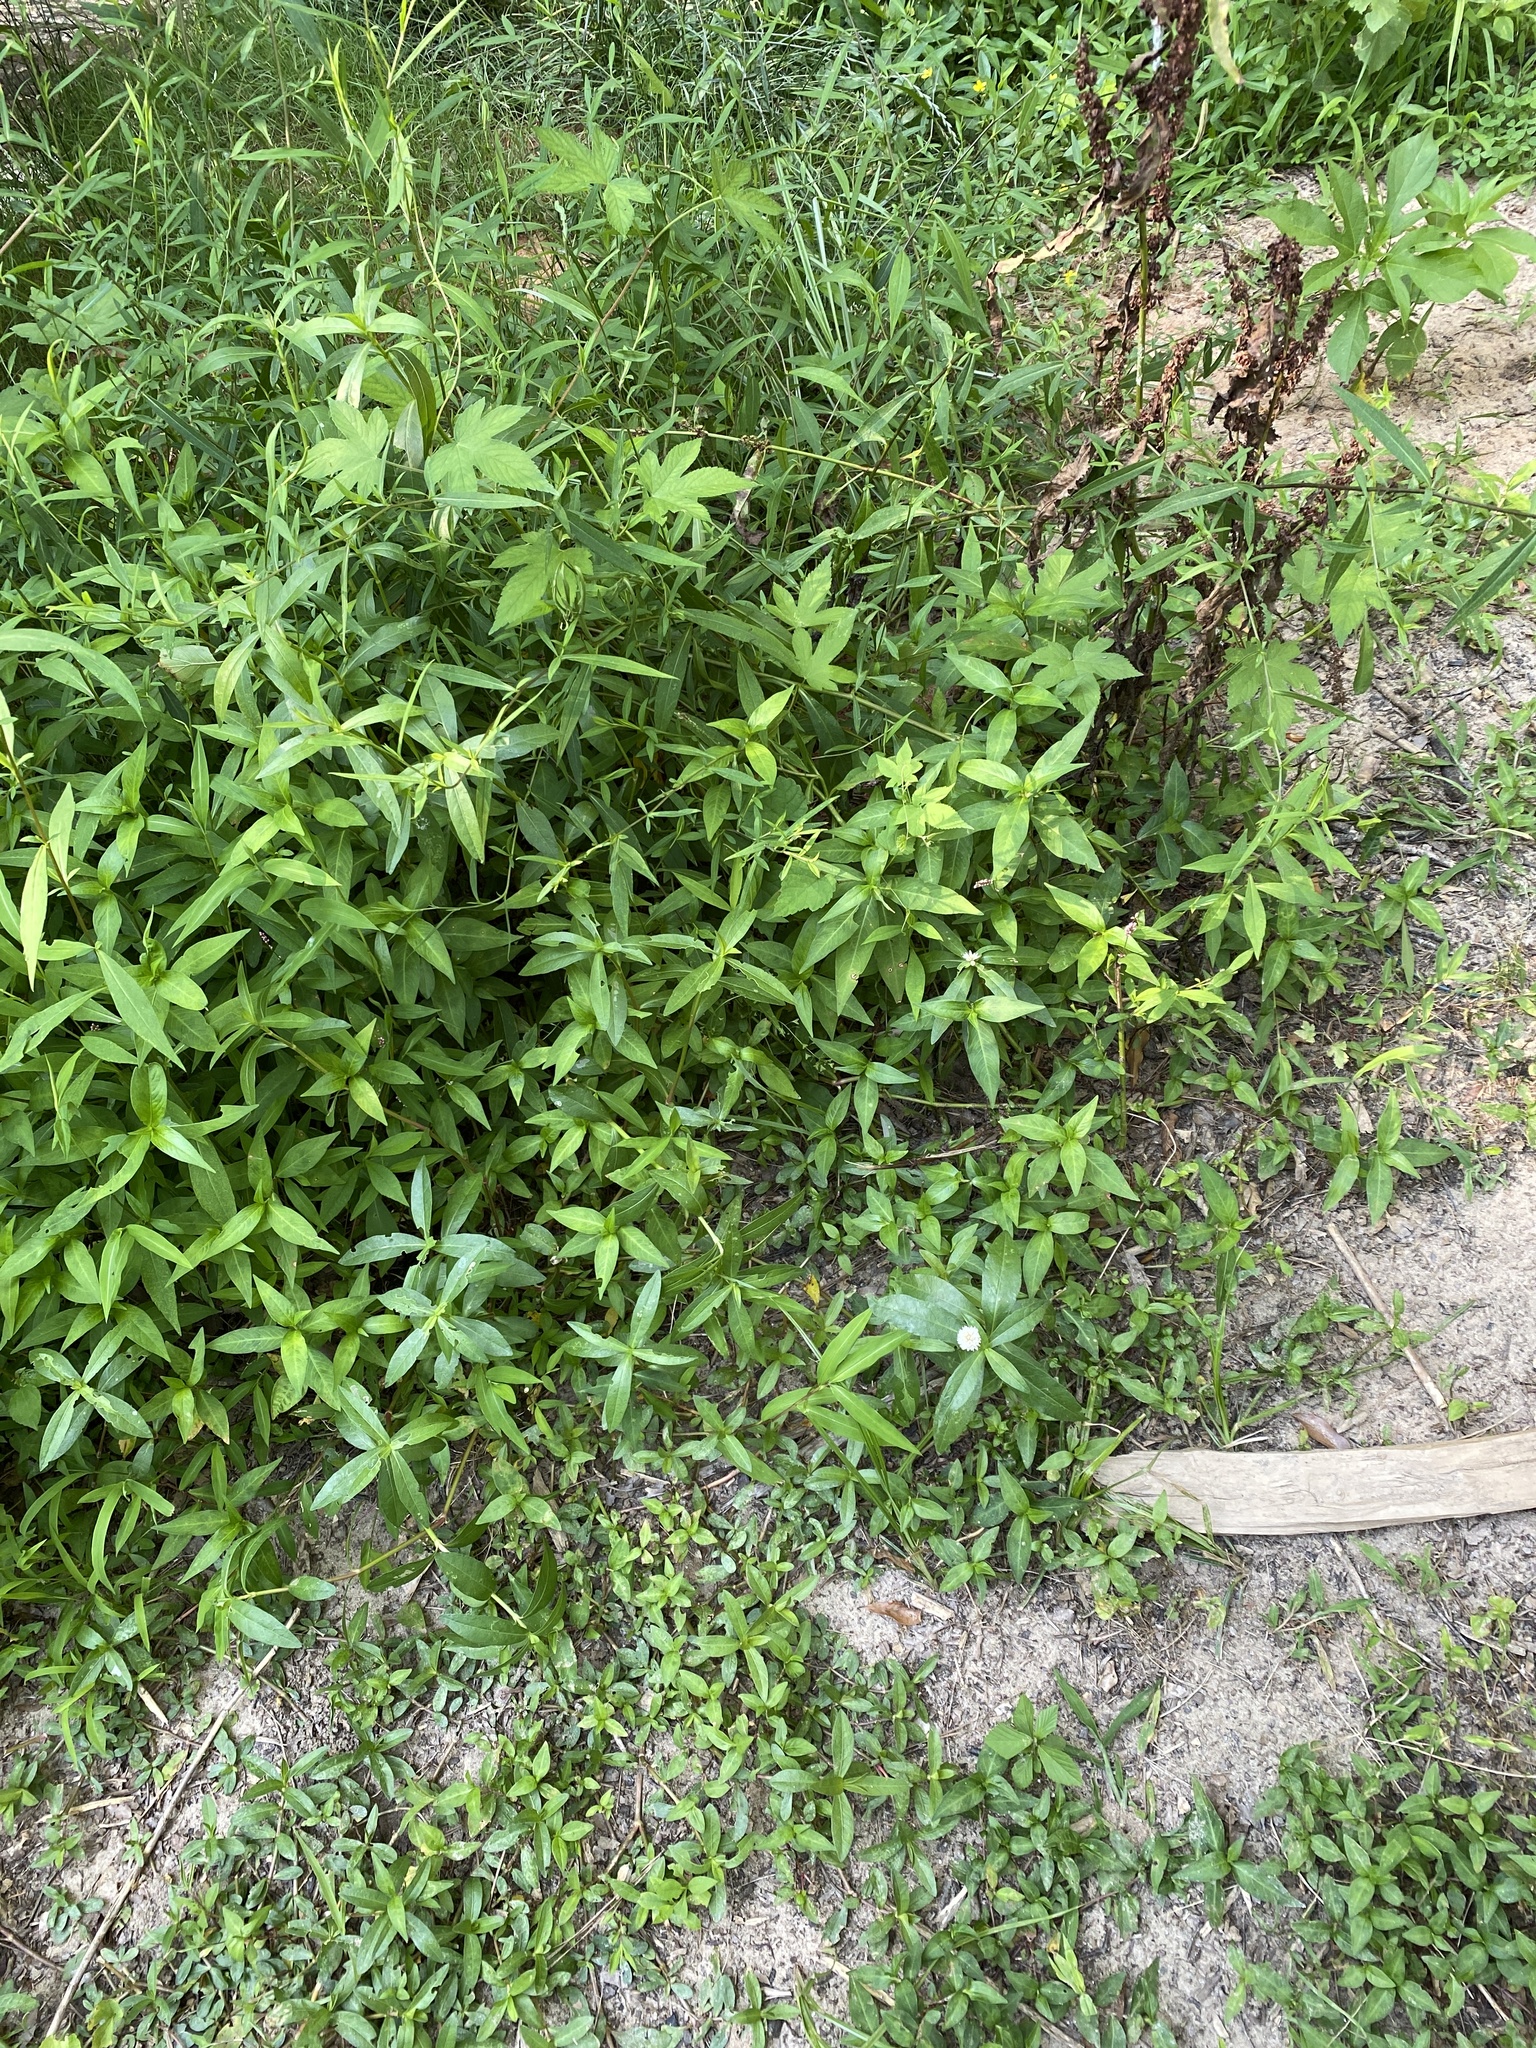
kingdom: Plantae
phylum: Tracheophyta
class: Magnoliopsida
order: Caryophyllales
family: Amaranthaceae
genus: Alternanthera
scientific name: Alternanthera philoxeroides
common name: Alligatorweed
